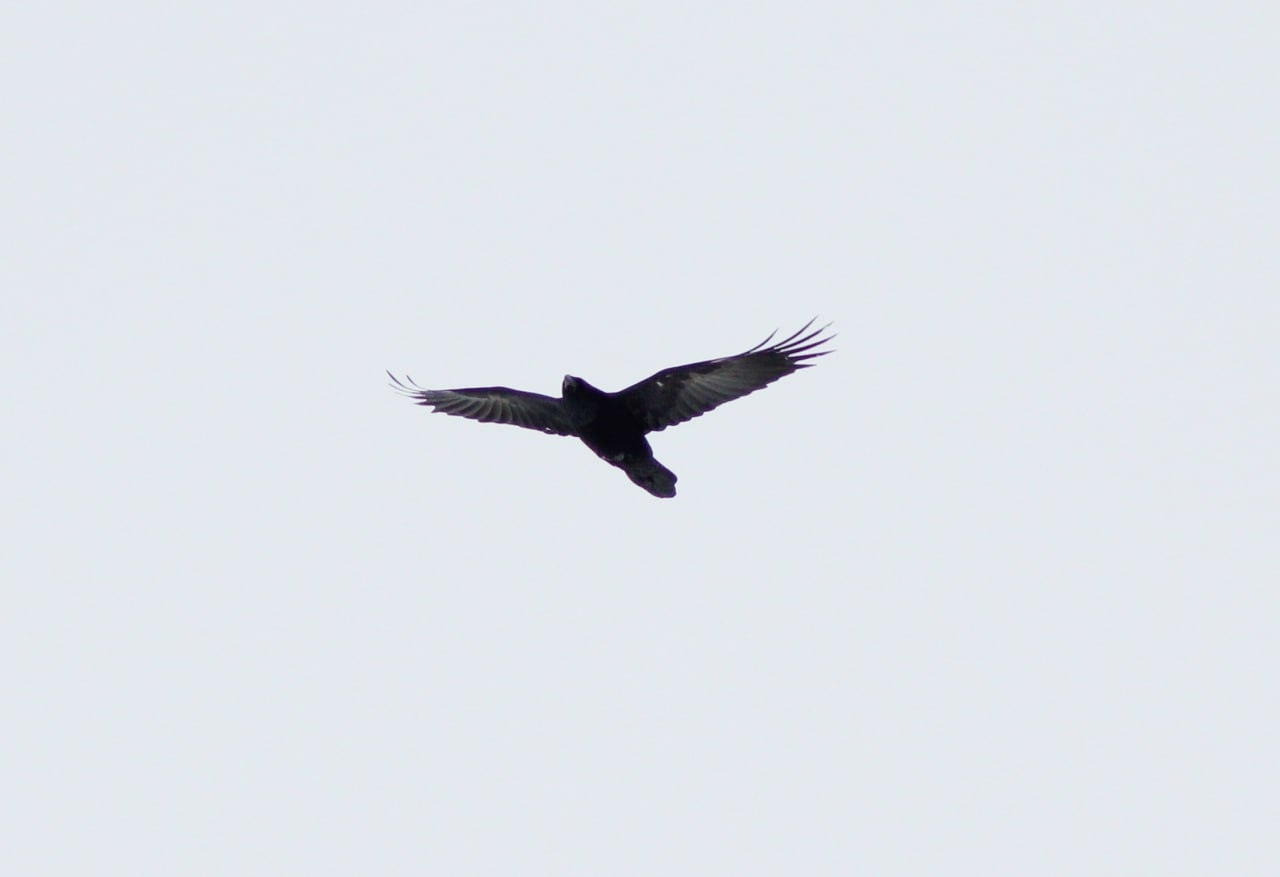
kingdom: Animalia
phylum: Chordata
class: Aves
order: Passeriformes
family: Corvidae
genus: Corvus
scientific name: Corvus corax
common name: Common raven
